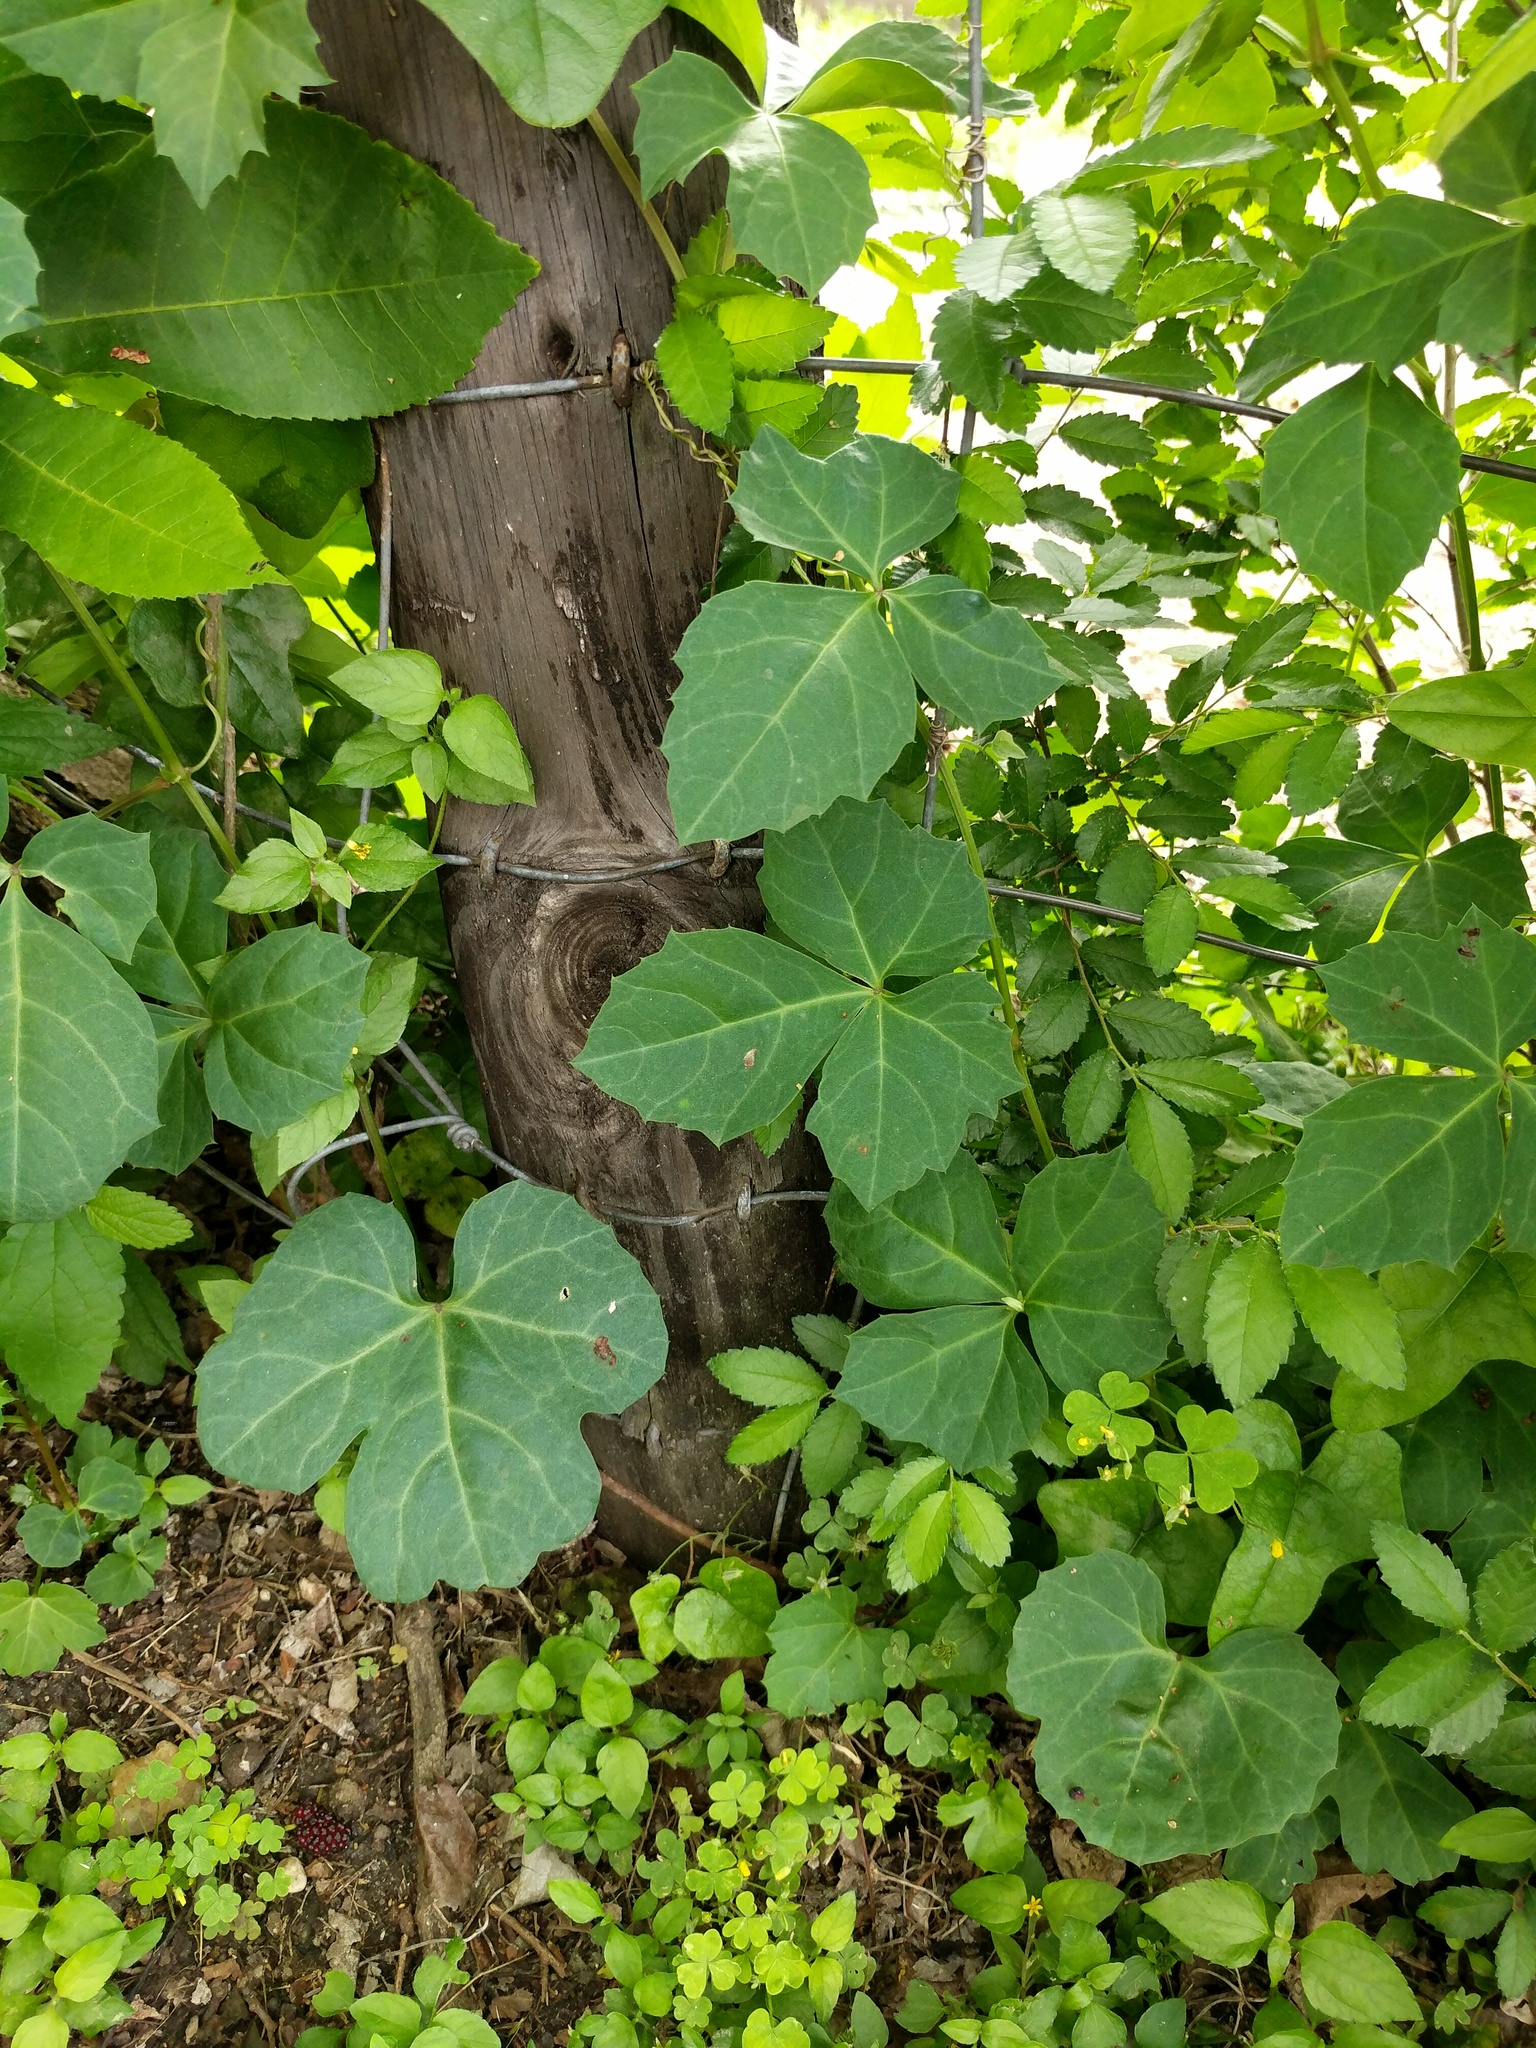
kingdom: Plantae
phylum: Tracheophyta
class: Magnoliopsida
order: Vitales
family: Vitaceae
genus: Cissus
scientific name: Cissus trifoliata
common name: Vine-sorrel
